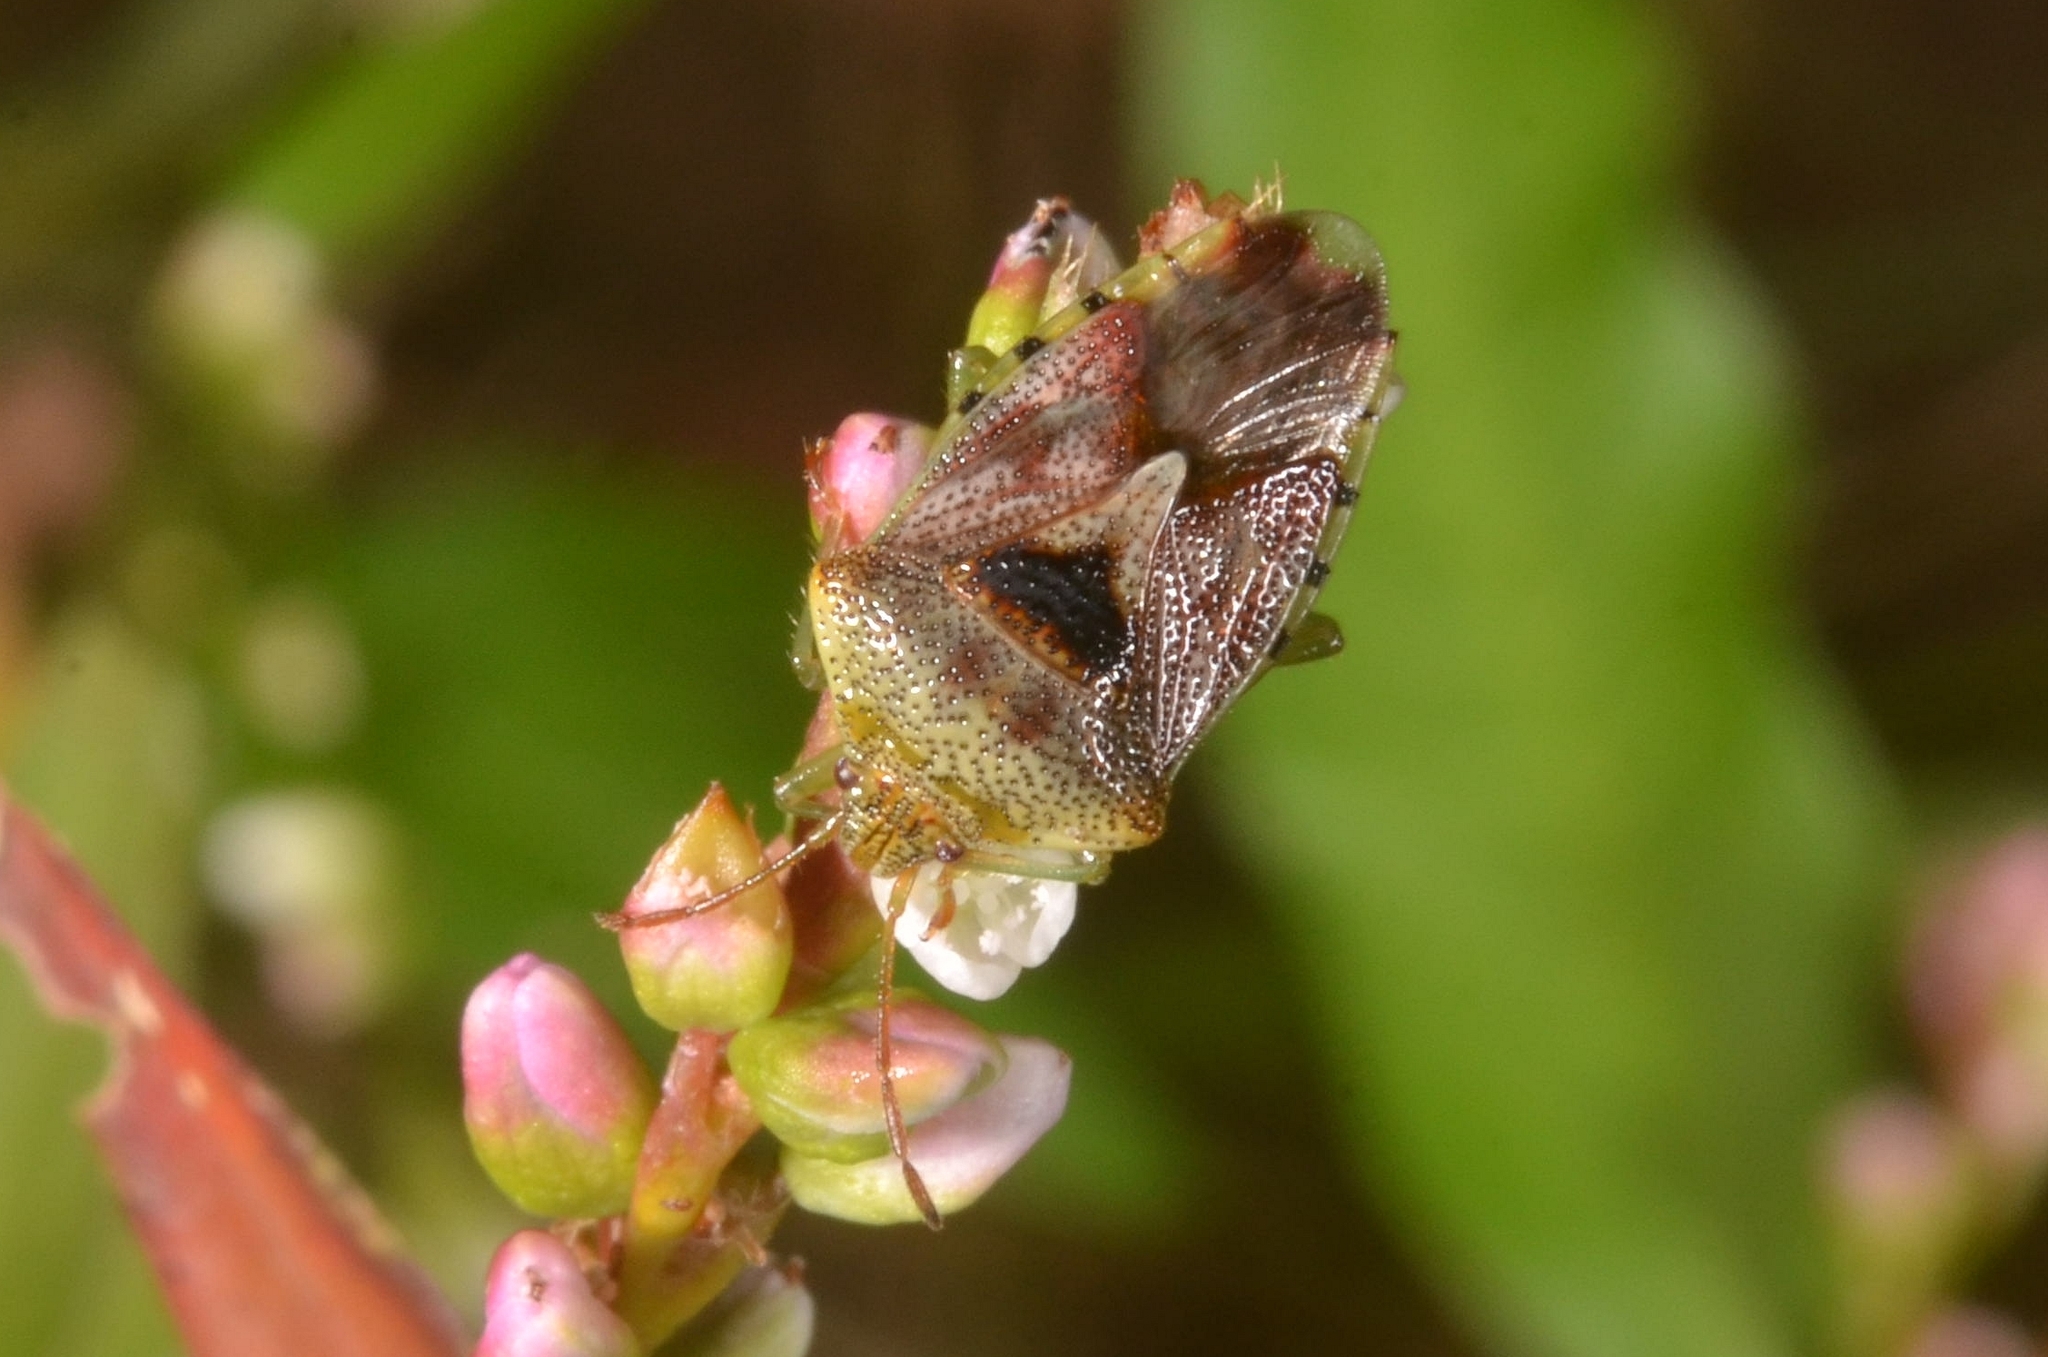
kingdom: Animalia
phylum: Arthropoda
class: Insecta
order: Hemiptera
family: Acanthosomatidae
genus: Elasmucha
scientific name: Elasmucha grisea
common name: Parent bug
